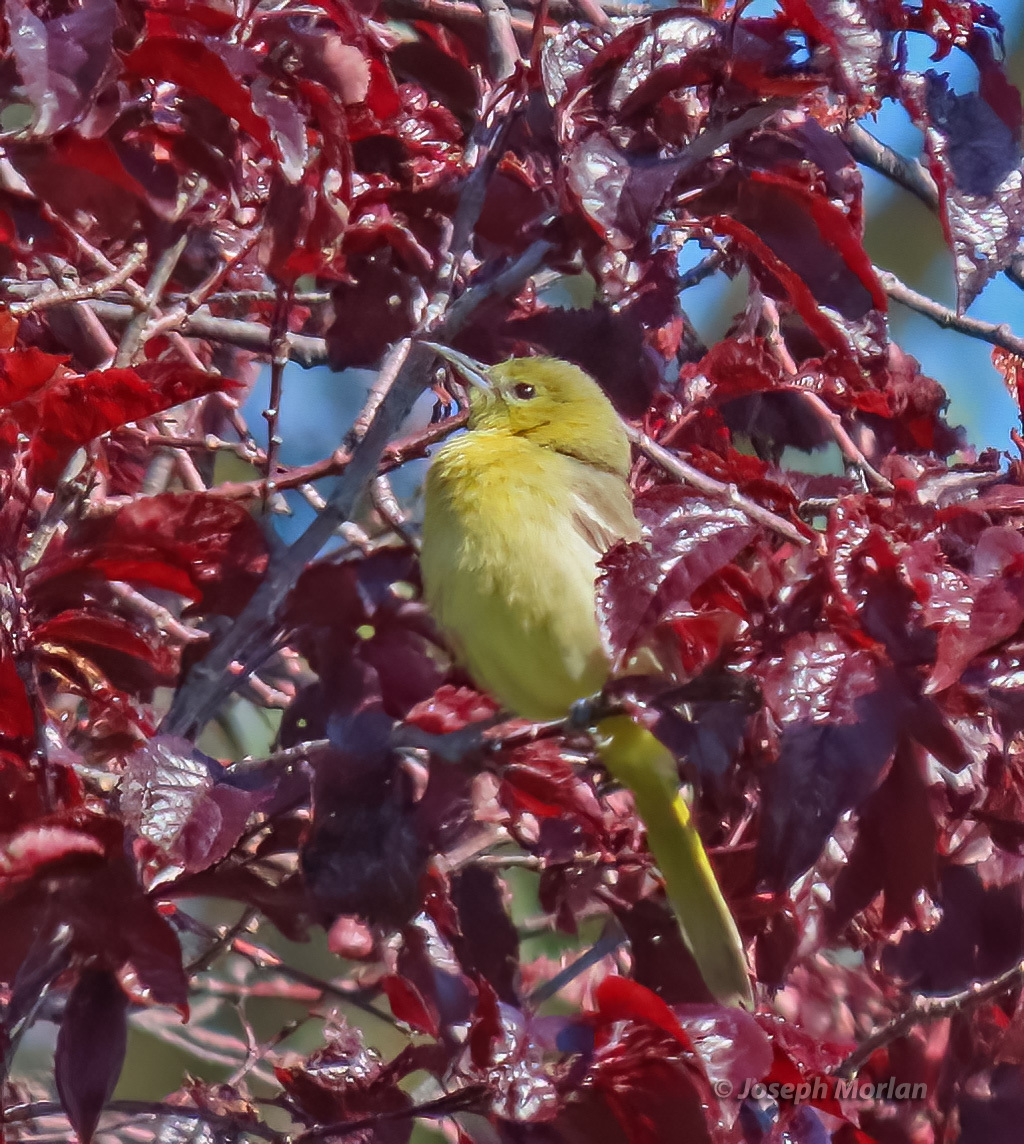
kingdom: Animalia
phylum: Chordata
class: Aves
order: Passeriformes
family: Icteridae
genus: Icterus
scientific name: Icterus cucullatus
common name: Hooded oriole
